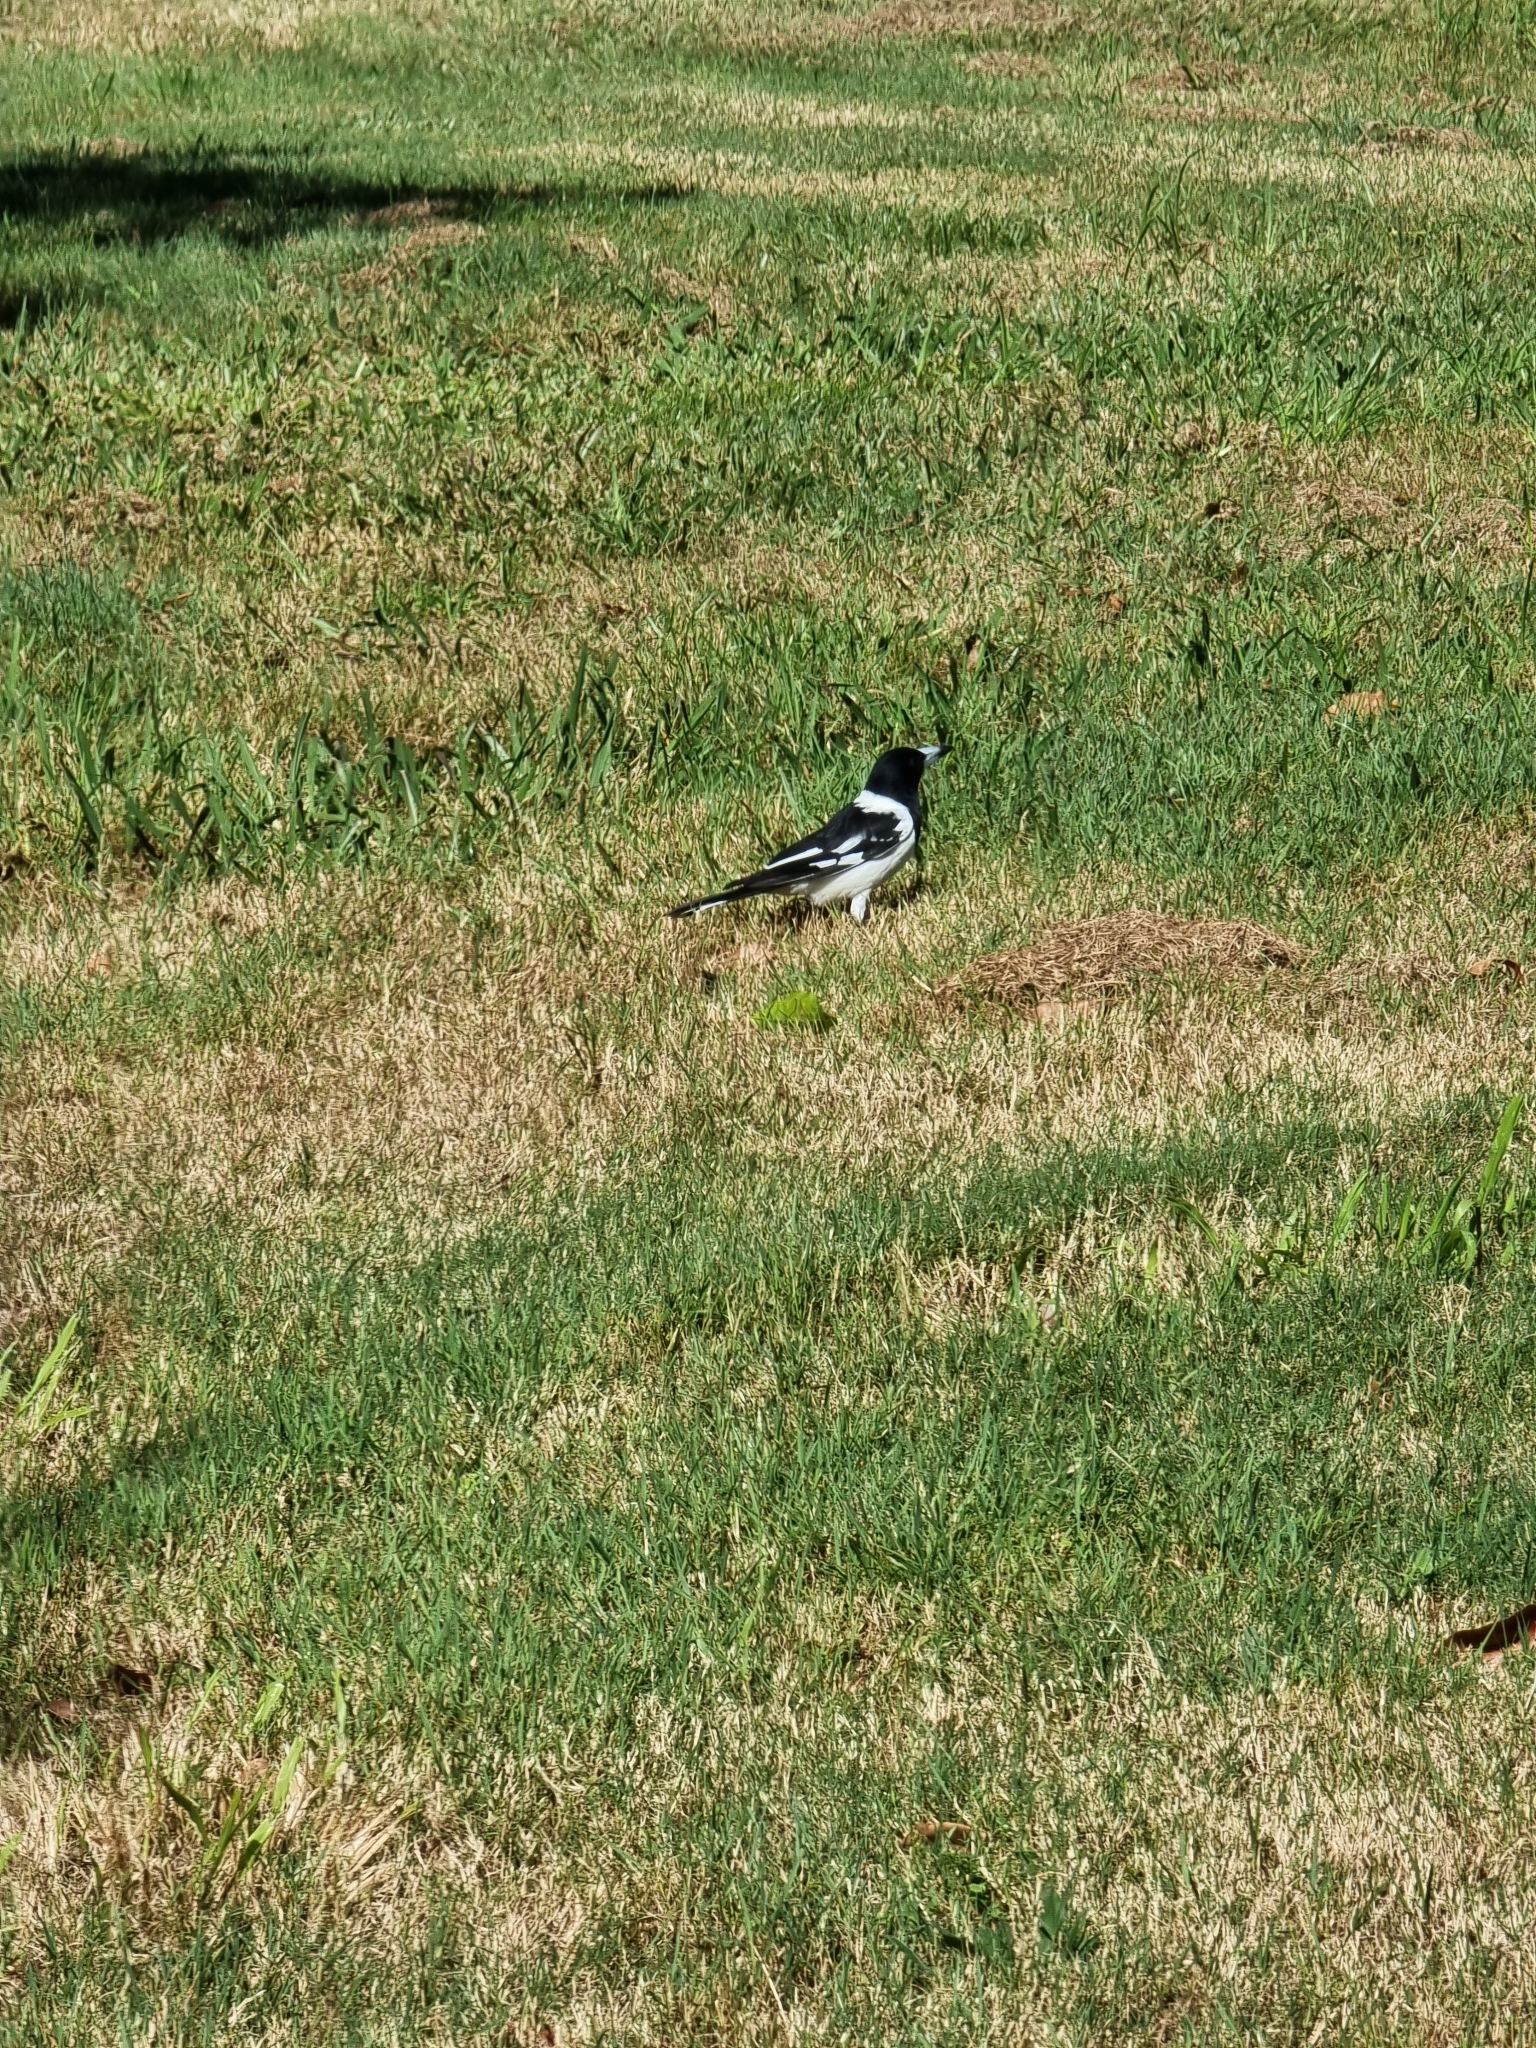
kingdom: Animalia
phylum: Chordata
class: Aves
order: Passeriformes
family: Cracticidae
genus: Cracticus
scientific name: Cracticus nigrogularis
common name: Pied butcherbird
